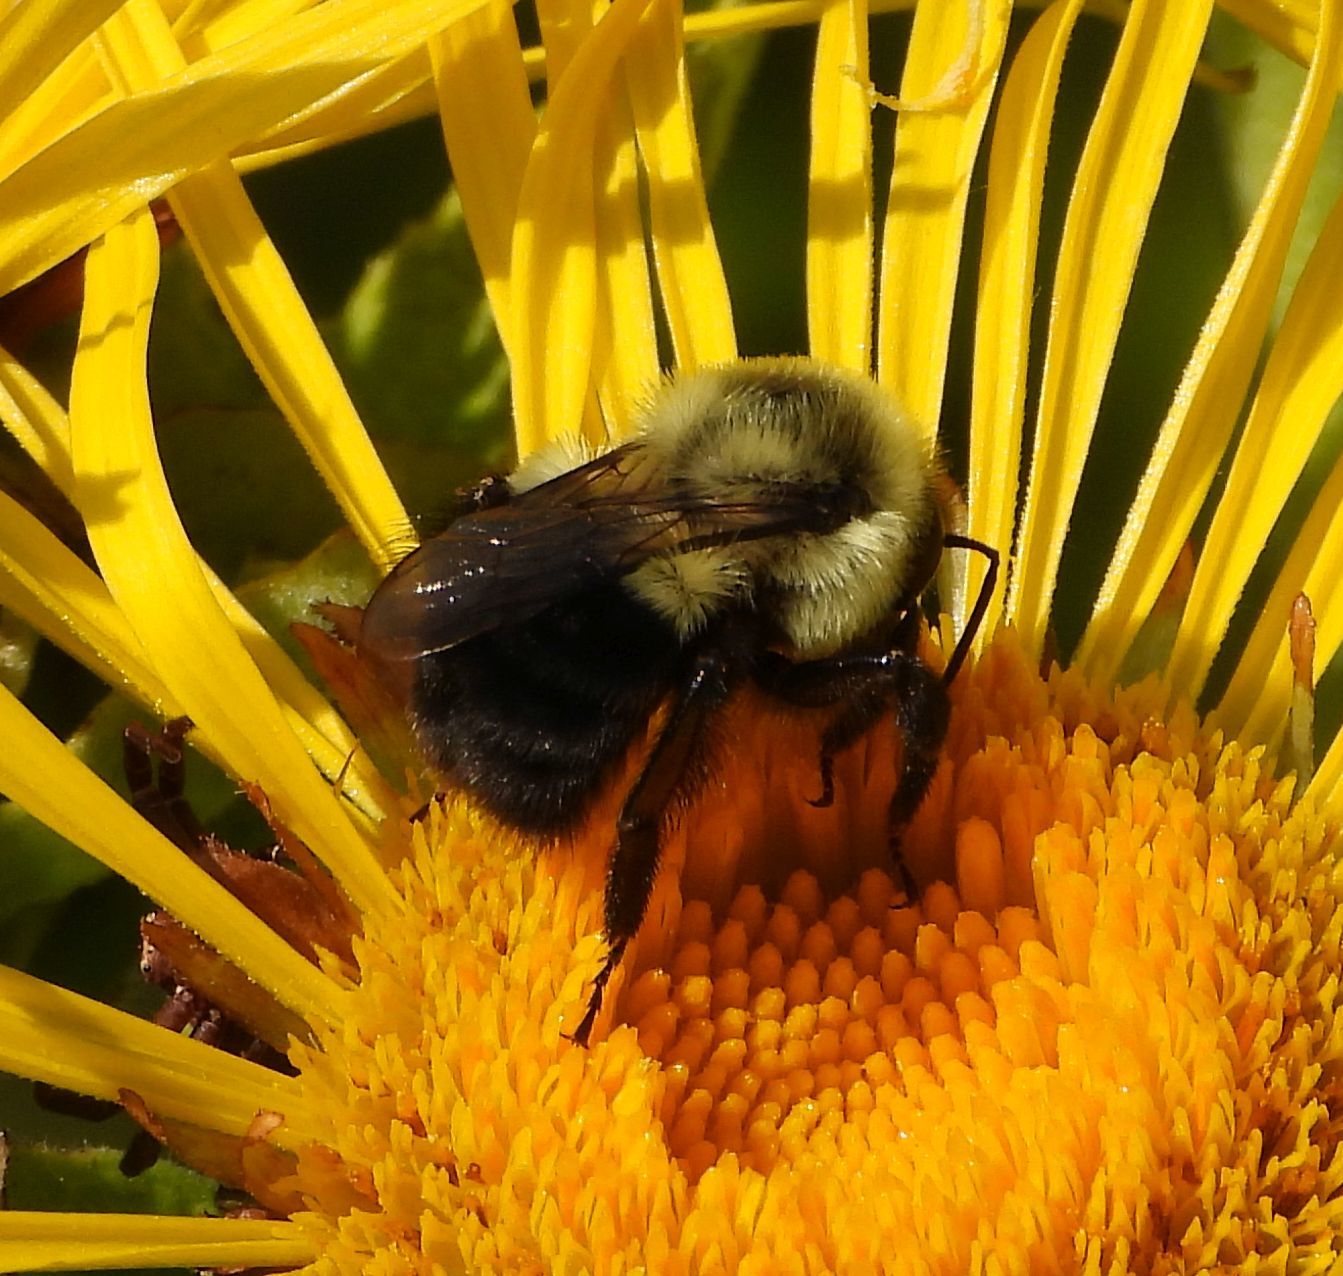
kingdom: Animalia
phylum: Arthropoda
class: Insecta
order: Hymenoptera
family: Apidae
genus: Bombus
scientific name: Bombus impatiens
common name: Common eastern bumble bee
